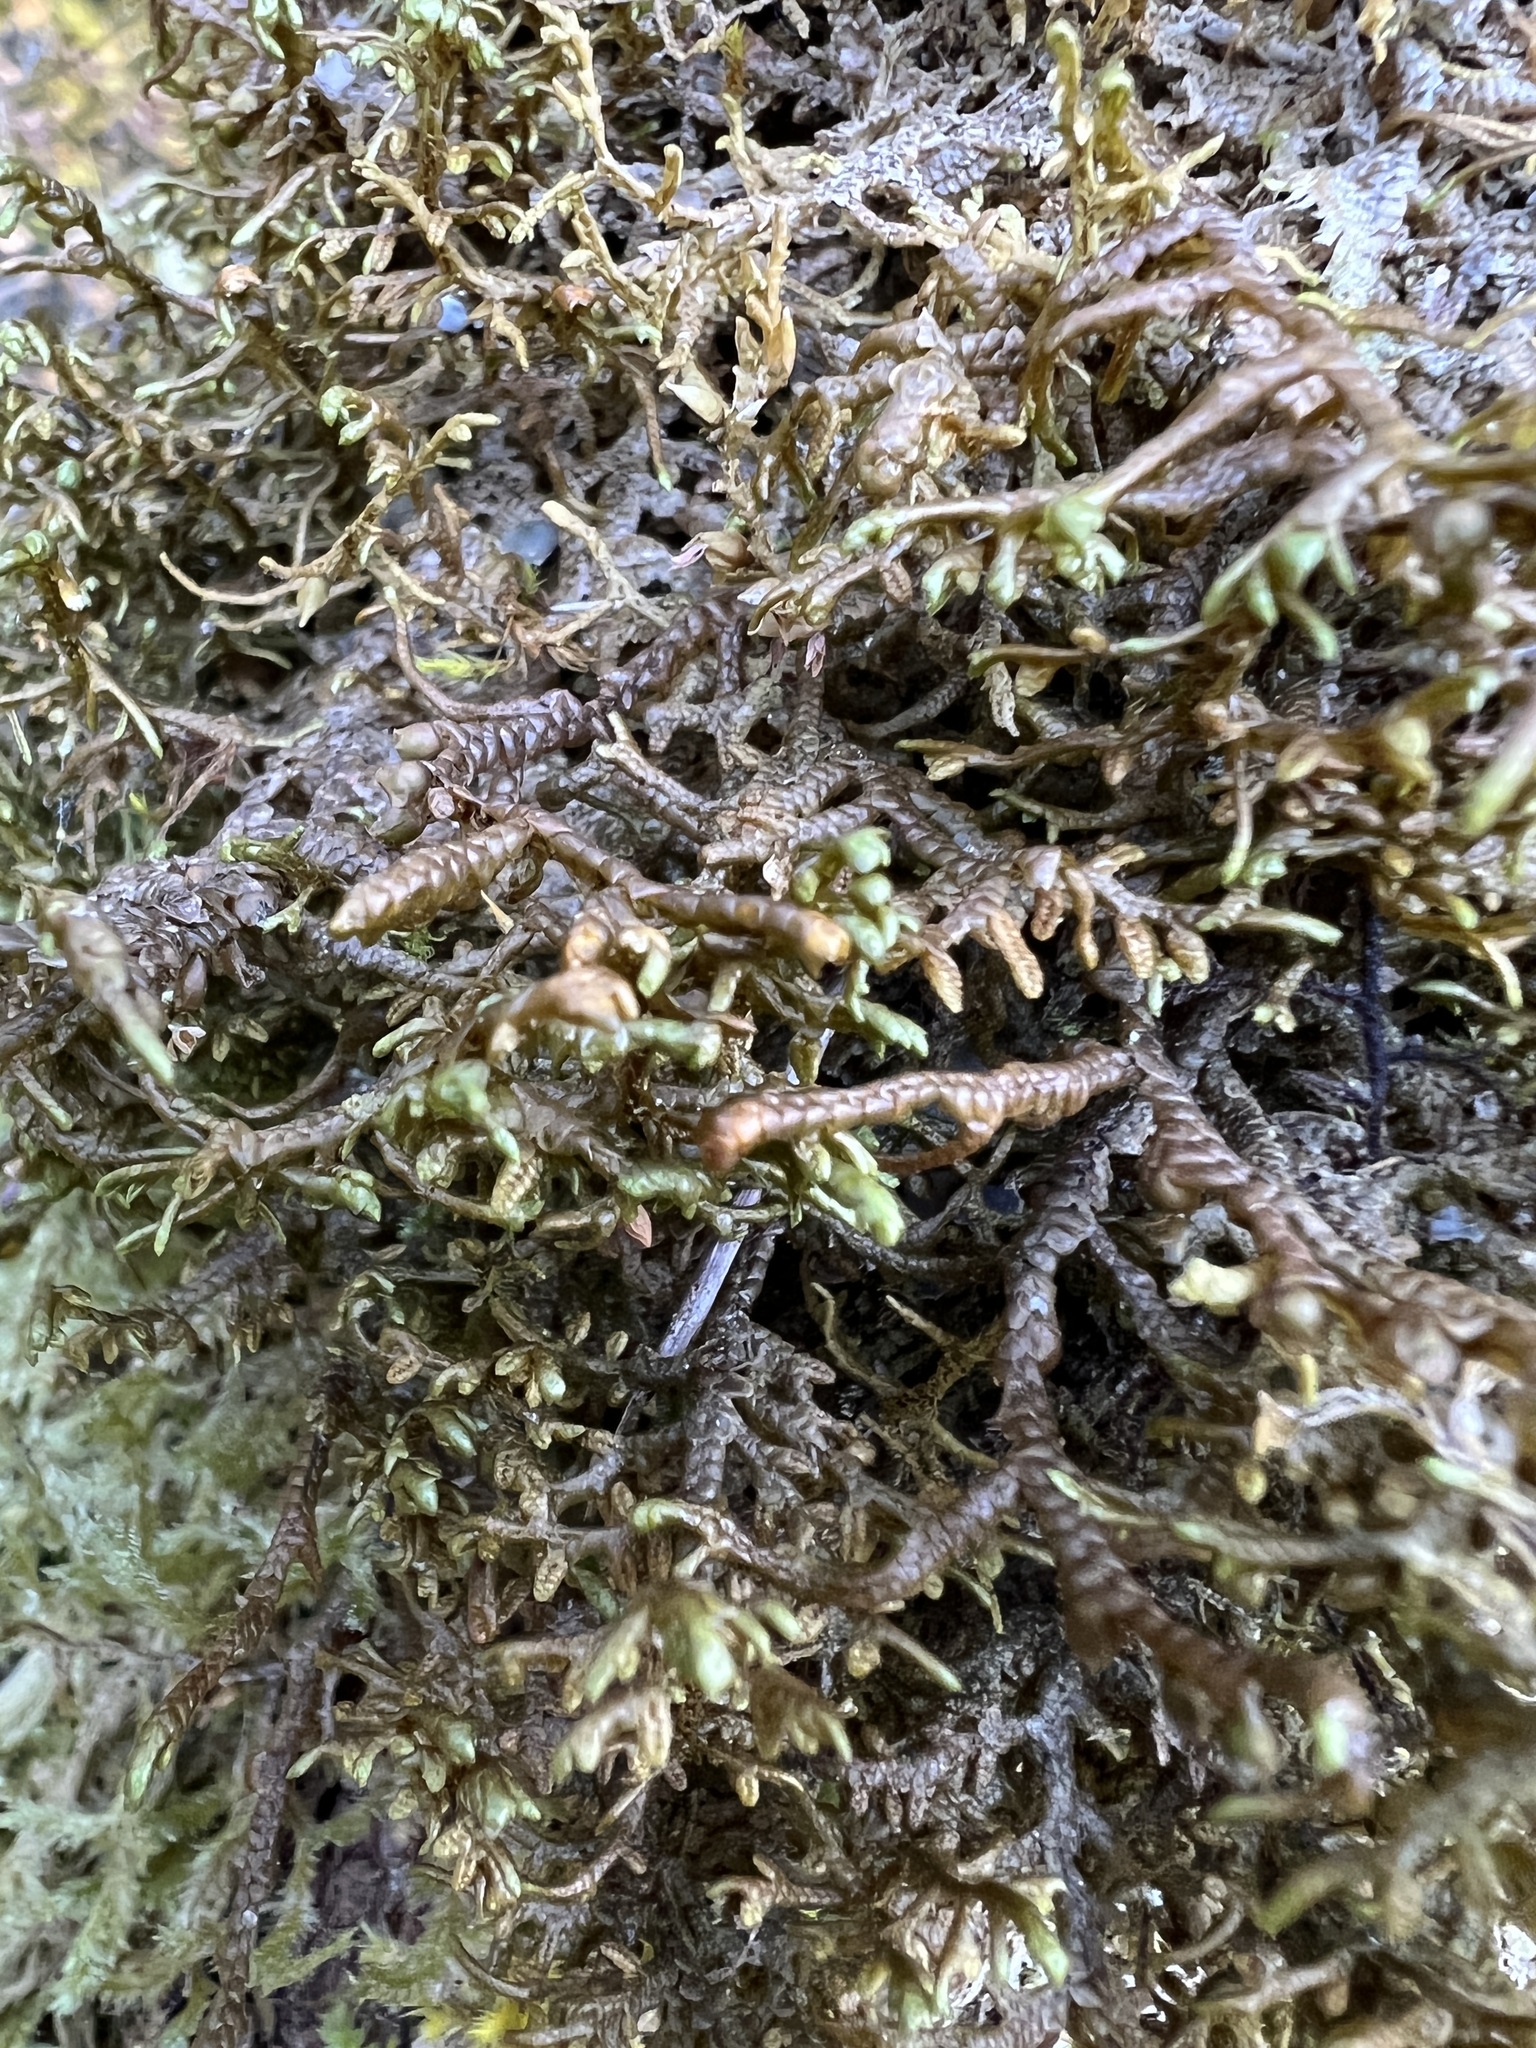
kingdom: Plantae
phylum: Marchantiophyta
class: Jungermanniopsida
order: Porellales
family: Porellaceae
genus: Porella
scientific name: Porella navicularis
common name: Tree ruffle liverwort
